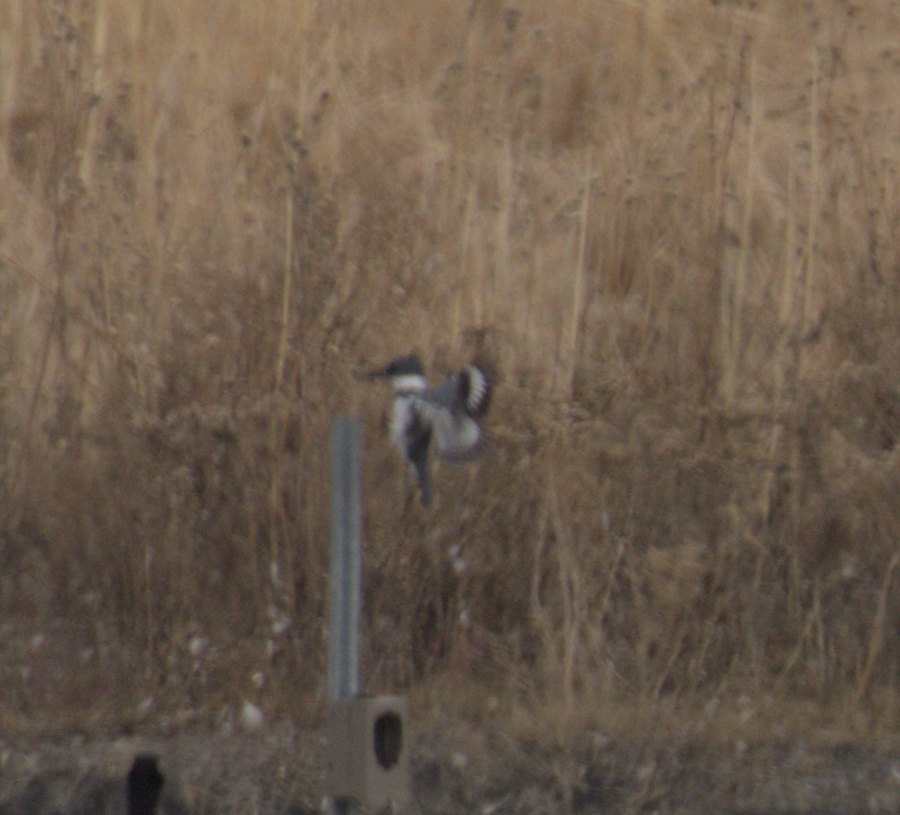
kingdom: Animalia
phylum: Chordata
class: Aves
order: Coraciiformes
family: Alcedinidae
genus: Megaceryle
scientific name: Megaceryle alcyon
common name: Belted kingfisher
